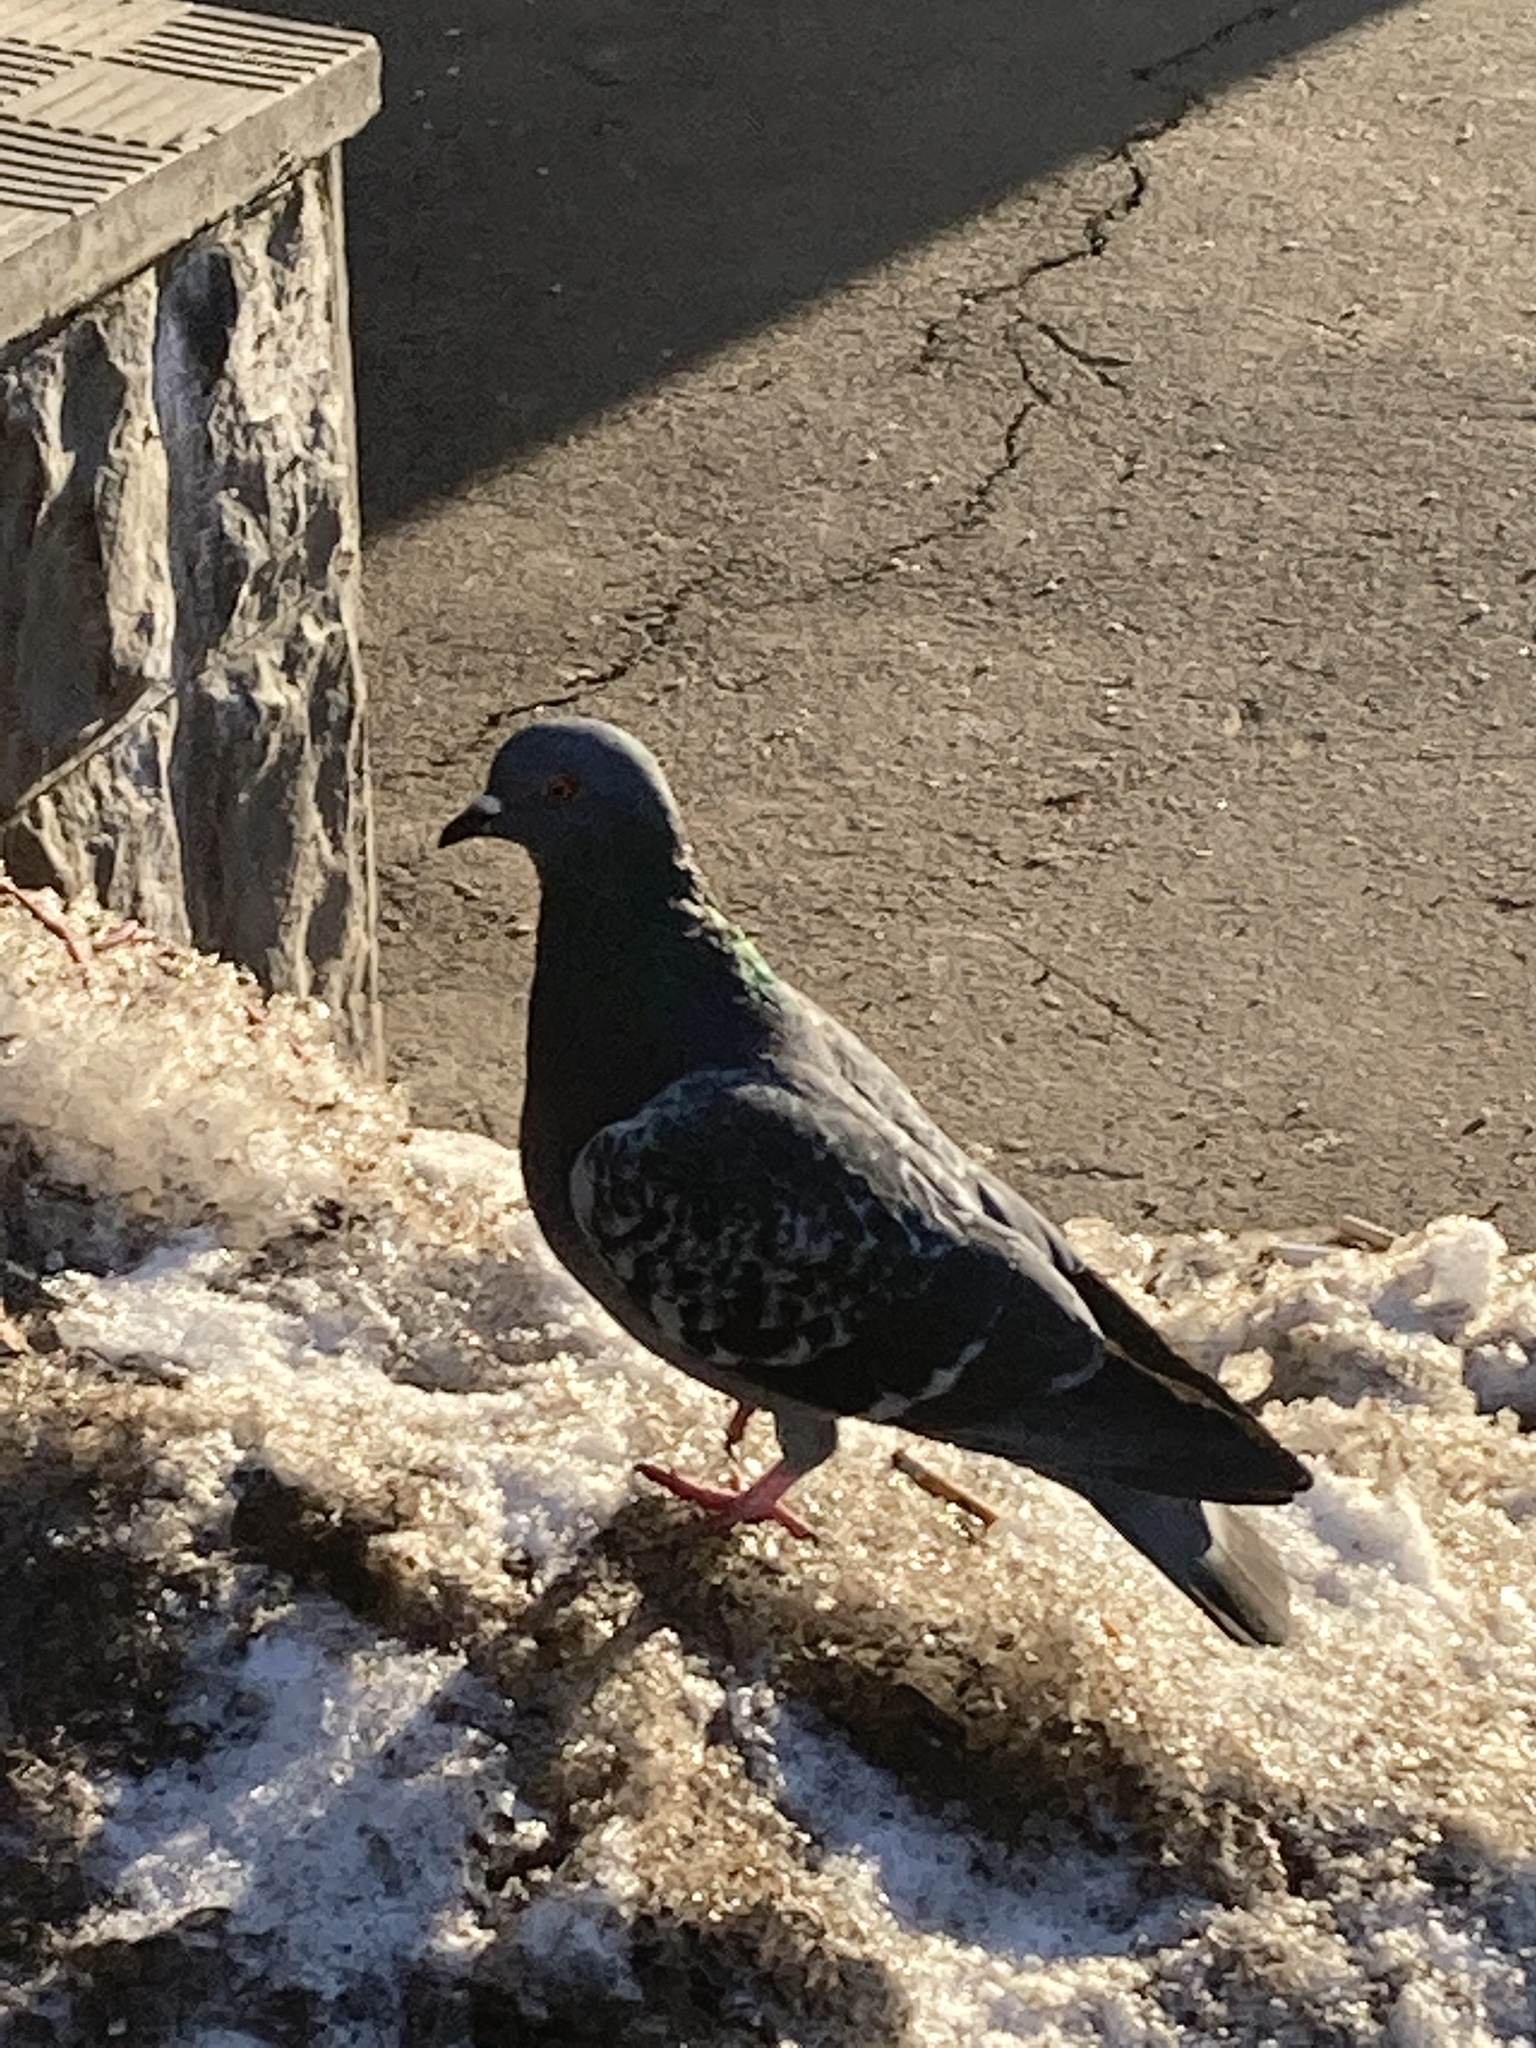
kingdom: Animalia
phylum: Chordata
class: Aves
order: Columbiformes
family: Columbidae
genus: Columba
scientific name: Columba livia
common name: Rock pigeon
